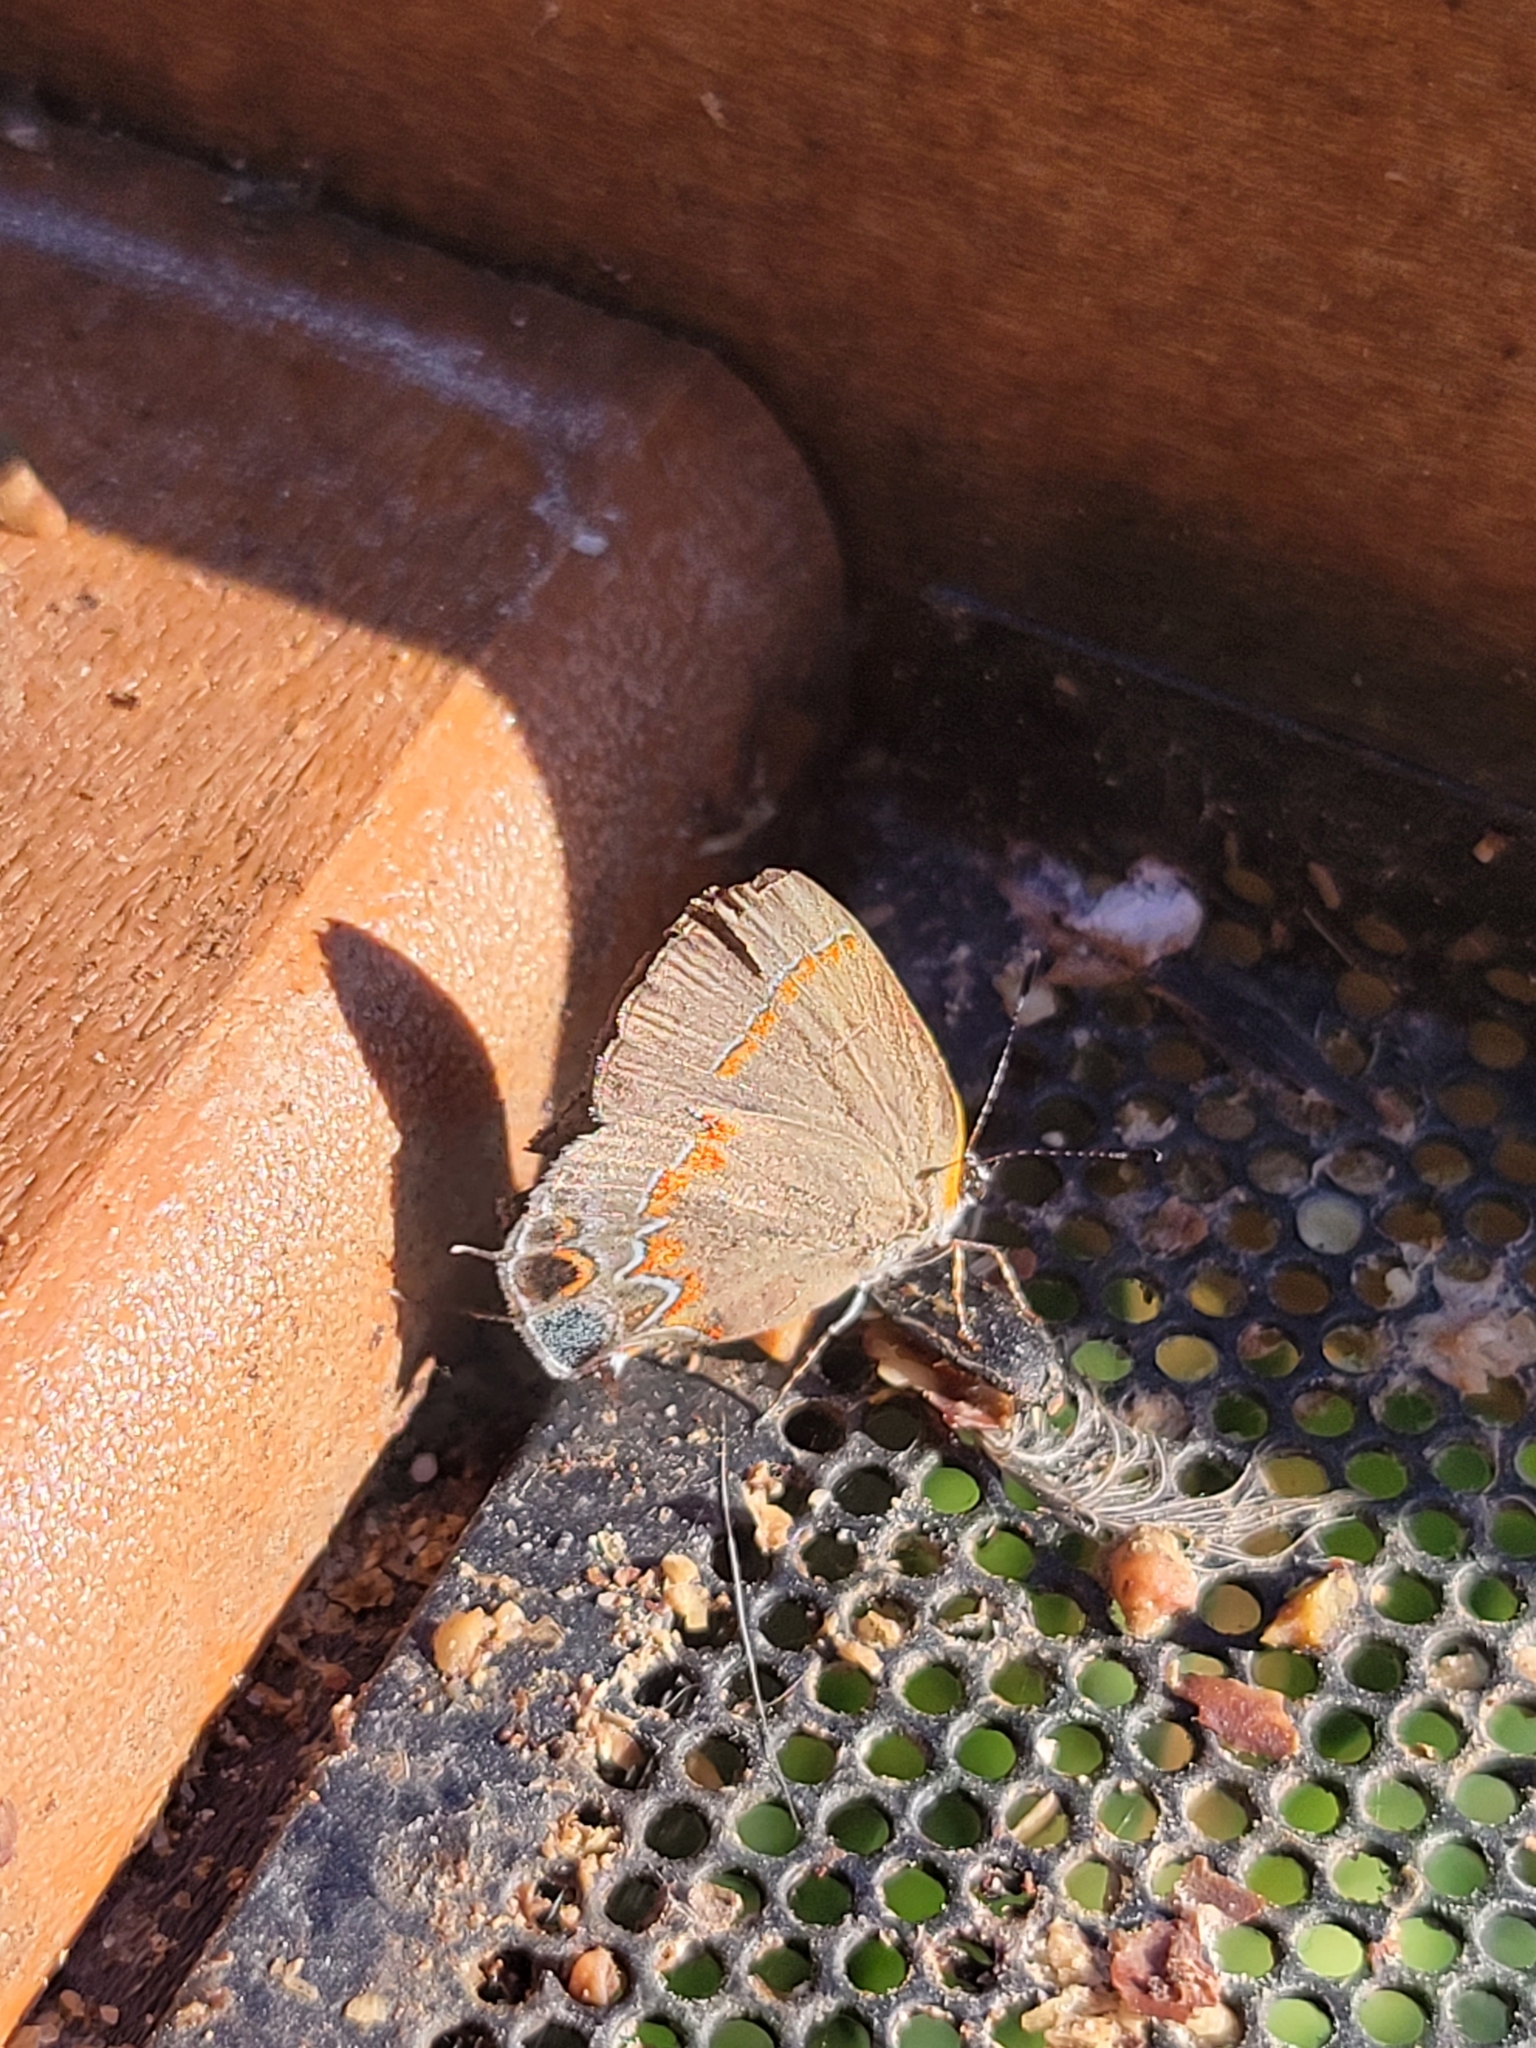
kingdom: Animalia
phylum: Arthropoda
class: Insecta
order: Lepidoptera
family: Lycaenidae
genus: Calycopis
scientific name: Calycopis cecrops
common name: Red-banded hairstreak
